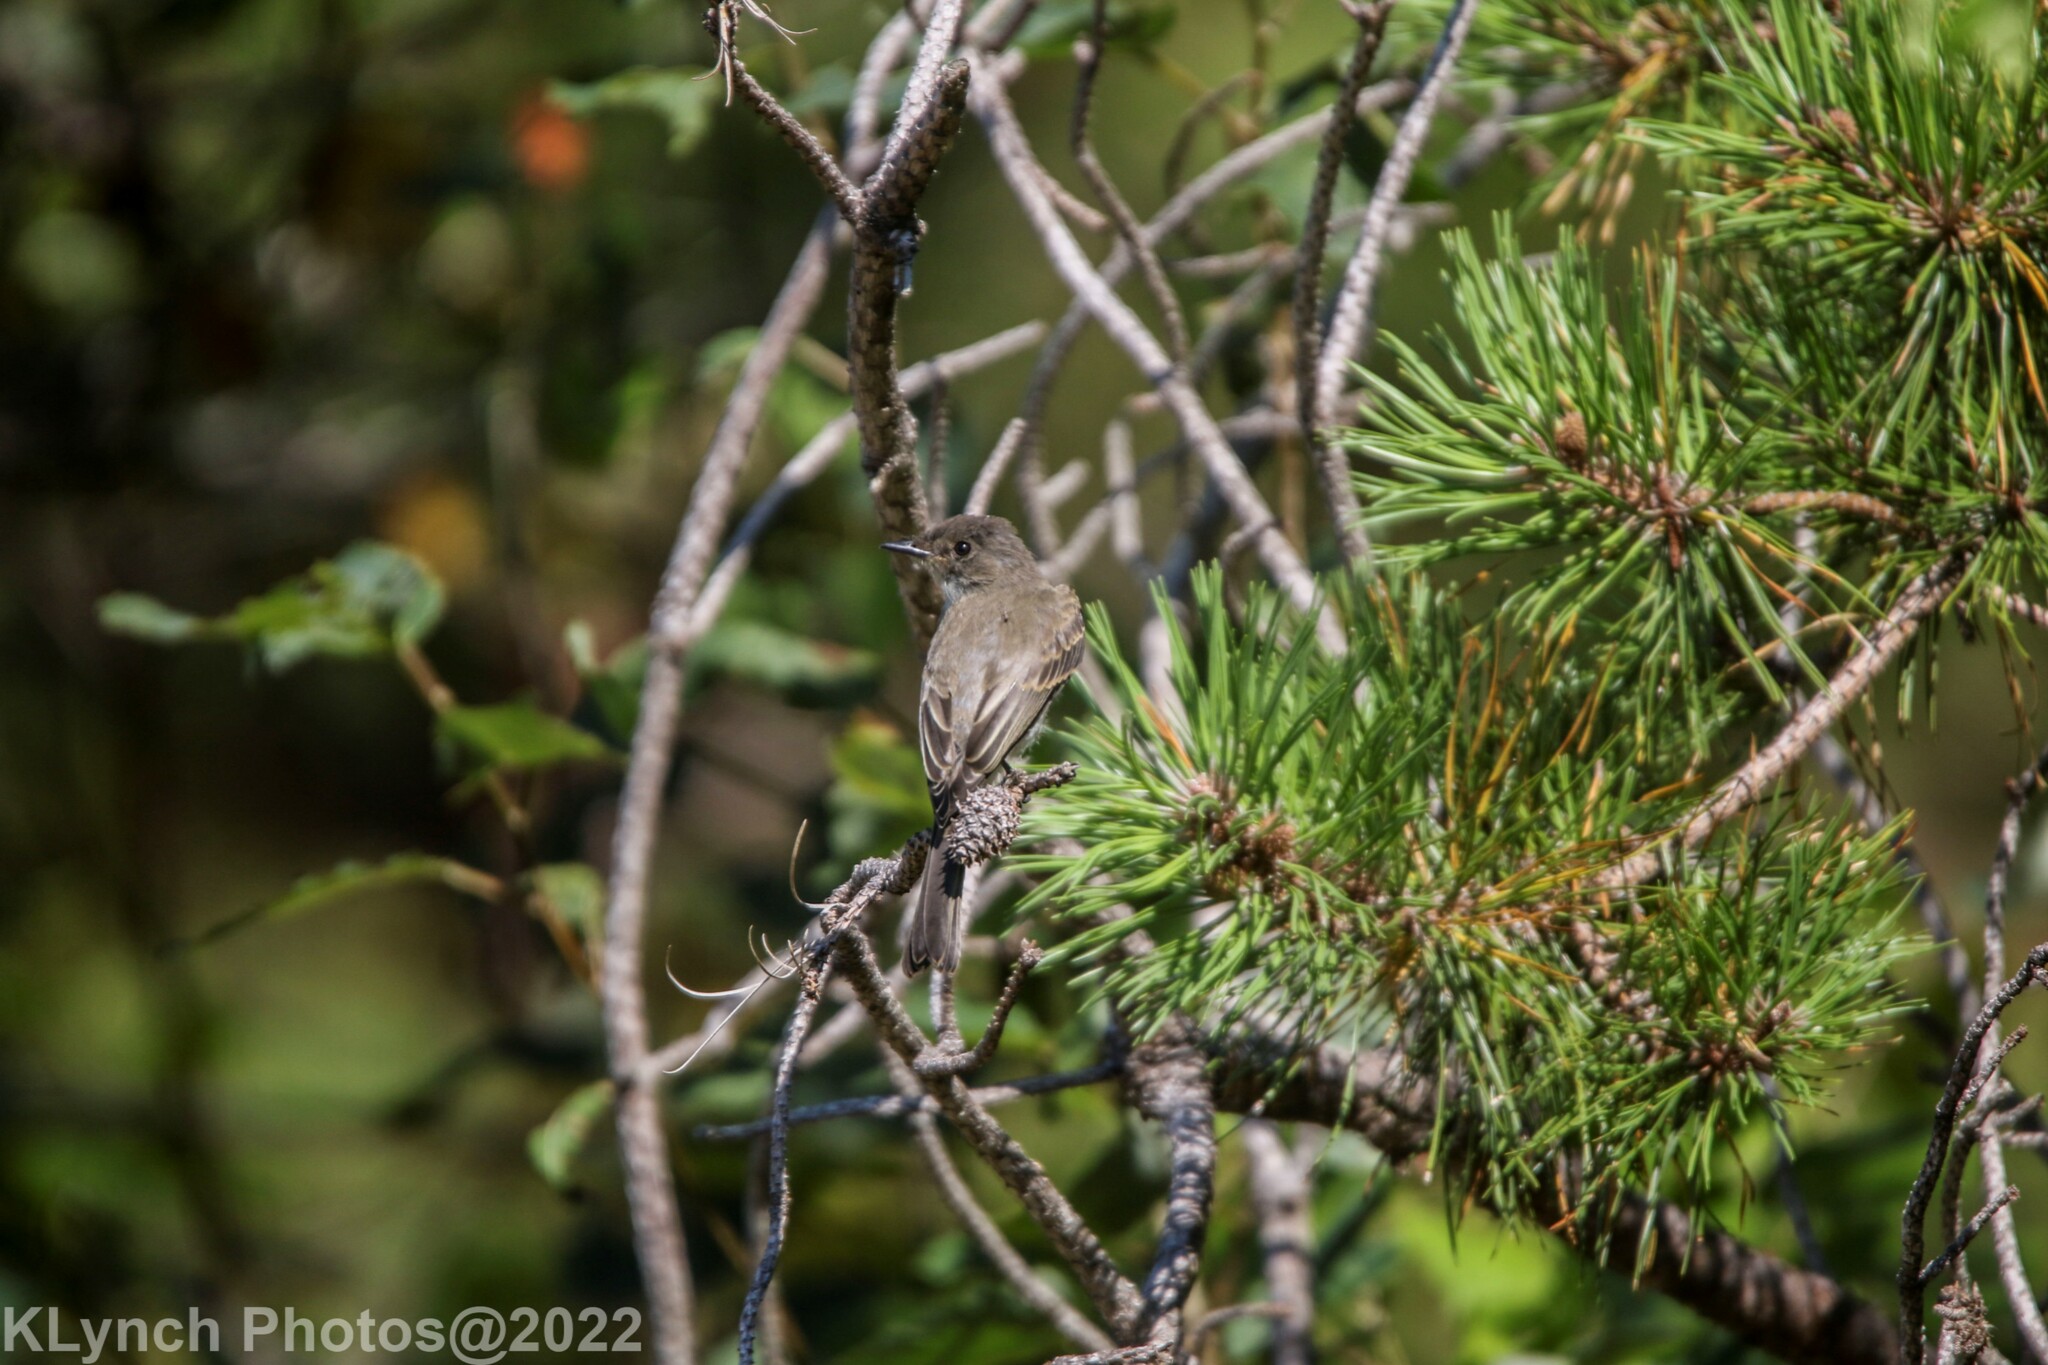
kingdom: Animalia
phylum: Chordata
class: Aves
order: Passeriformes
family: Tyrannidae
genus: Sayornis
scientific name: Sayornis phoebe
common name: Eastern phoebe
